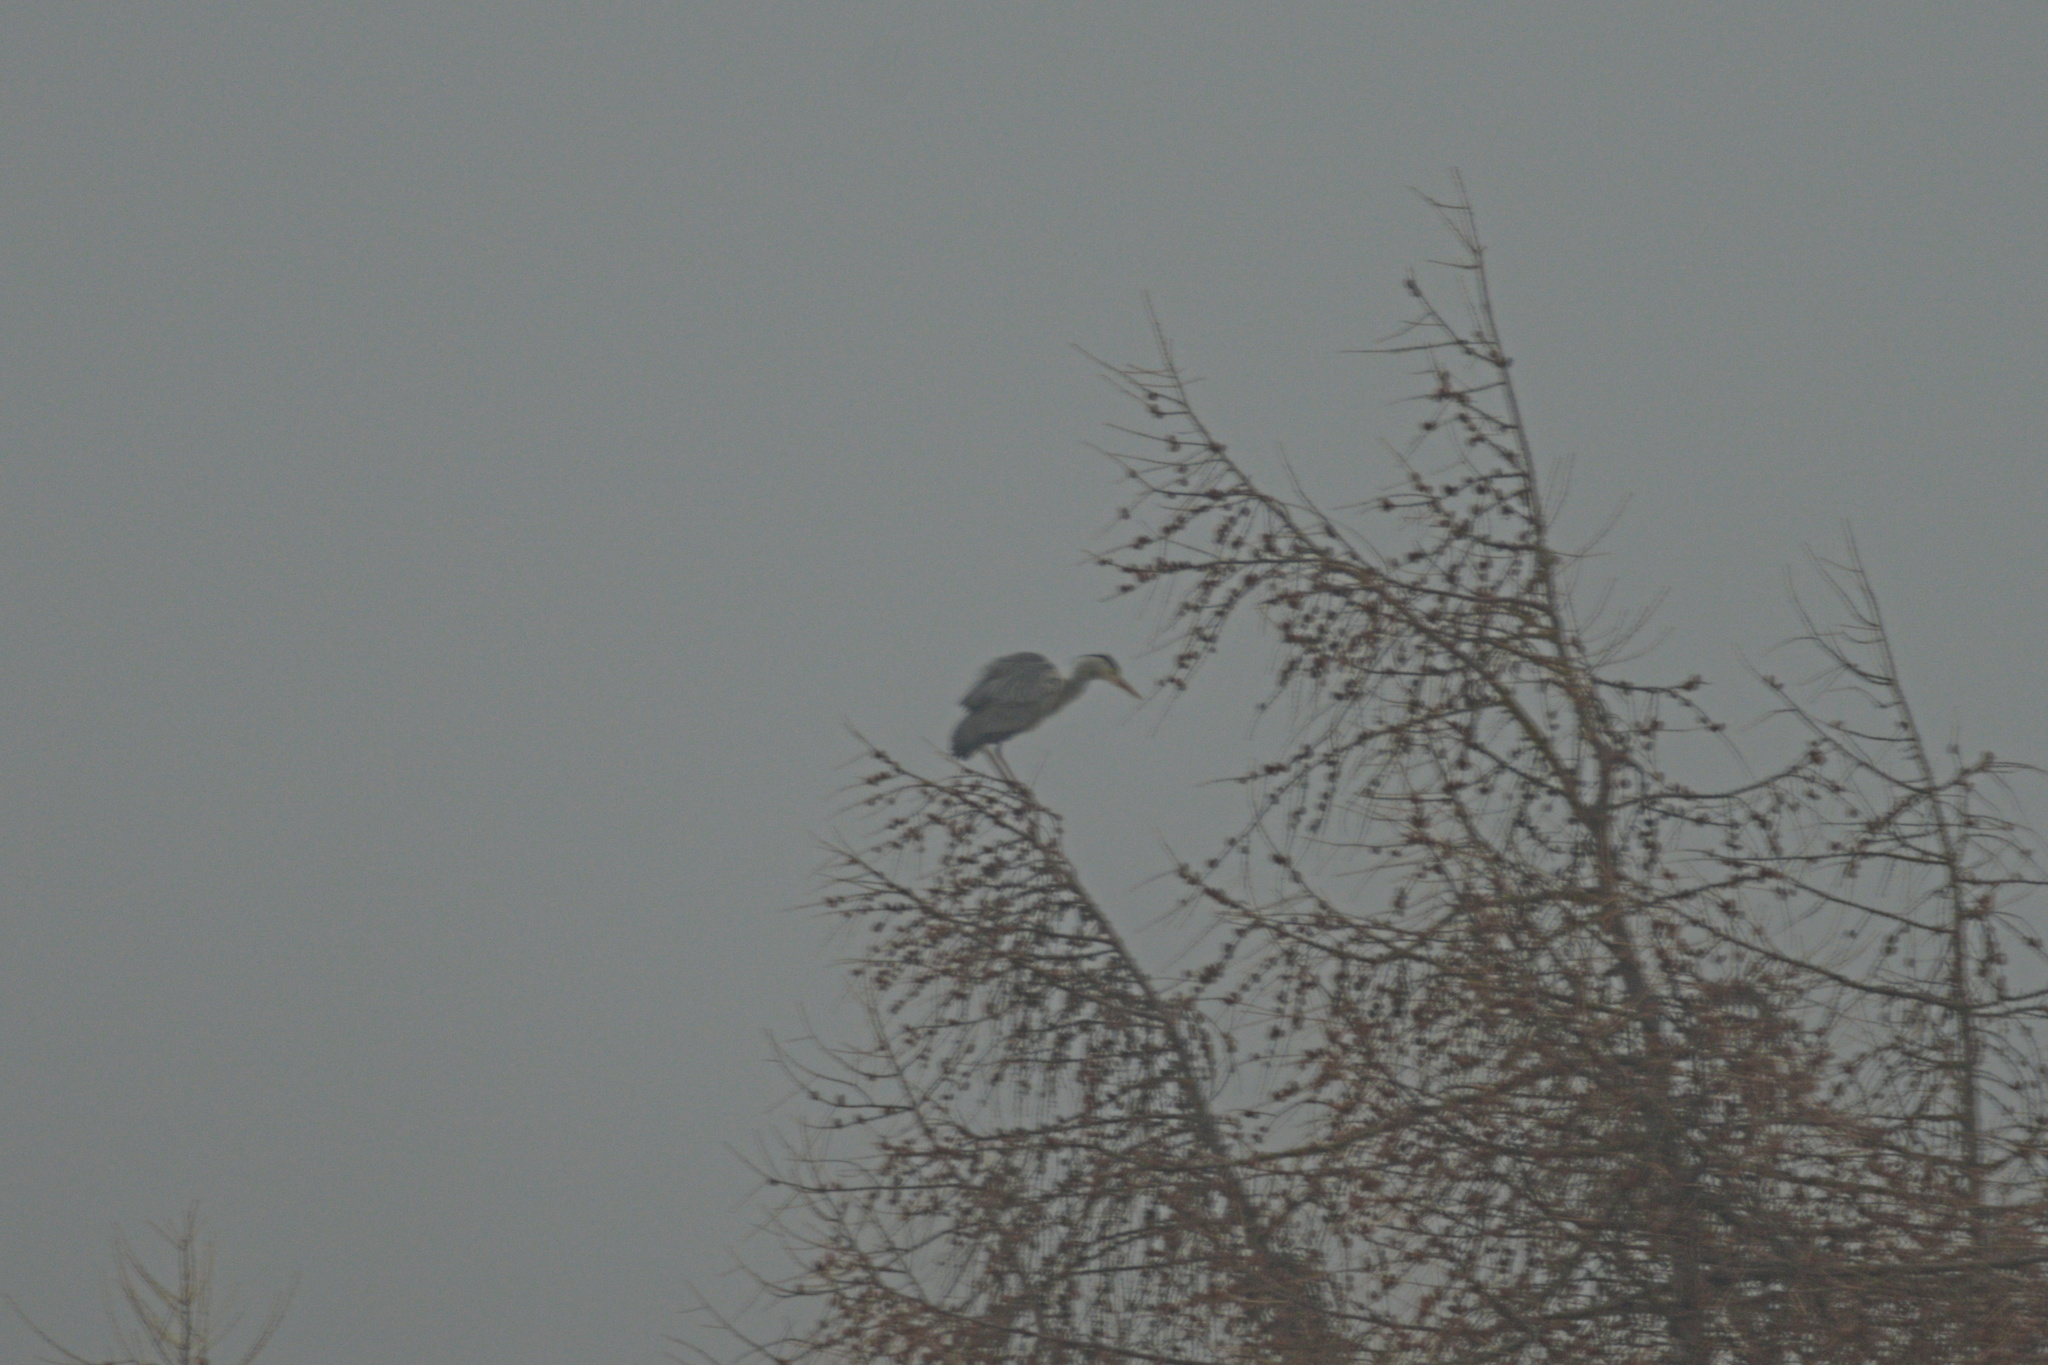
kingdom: Animalia
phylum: Chordata
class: Aves
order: Pelecaniformes
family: Ardeidae
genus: Ardea
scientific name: Ardea cinerea
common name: Grey heron
